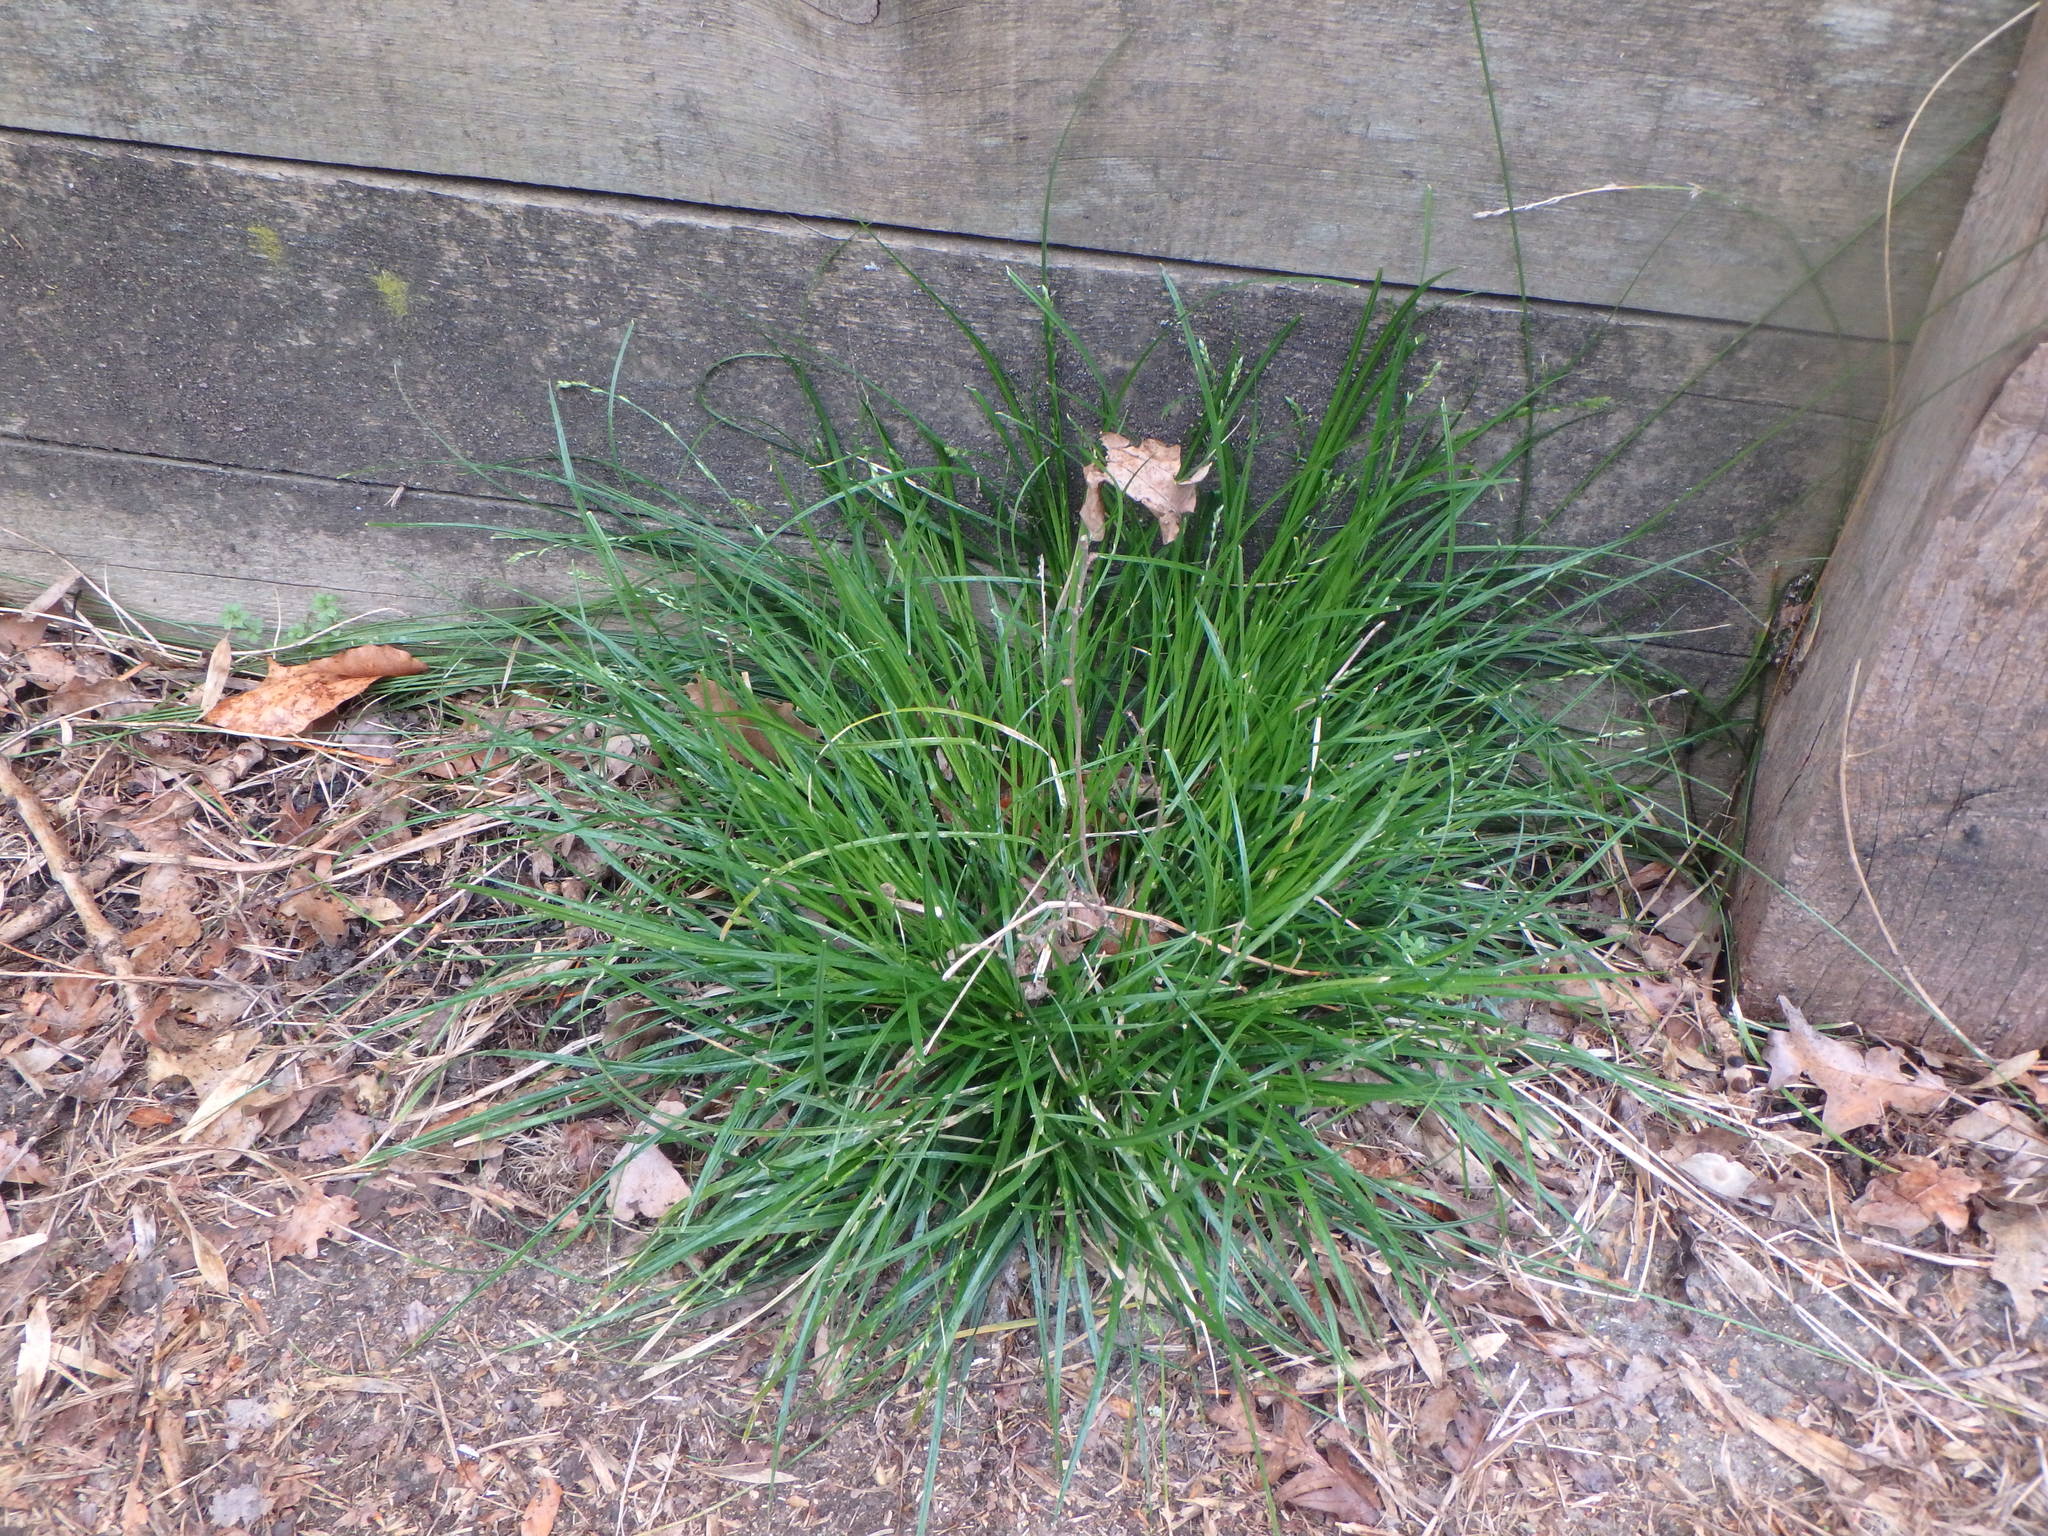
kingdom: Plantae
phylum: Tracheophyta
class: Liliopsida
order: Poales
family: Cyperaceae
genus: Carex
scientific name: Carex divulsa
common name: Grassland sedge
